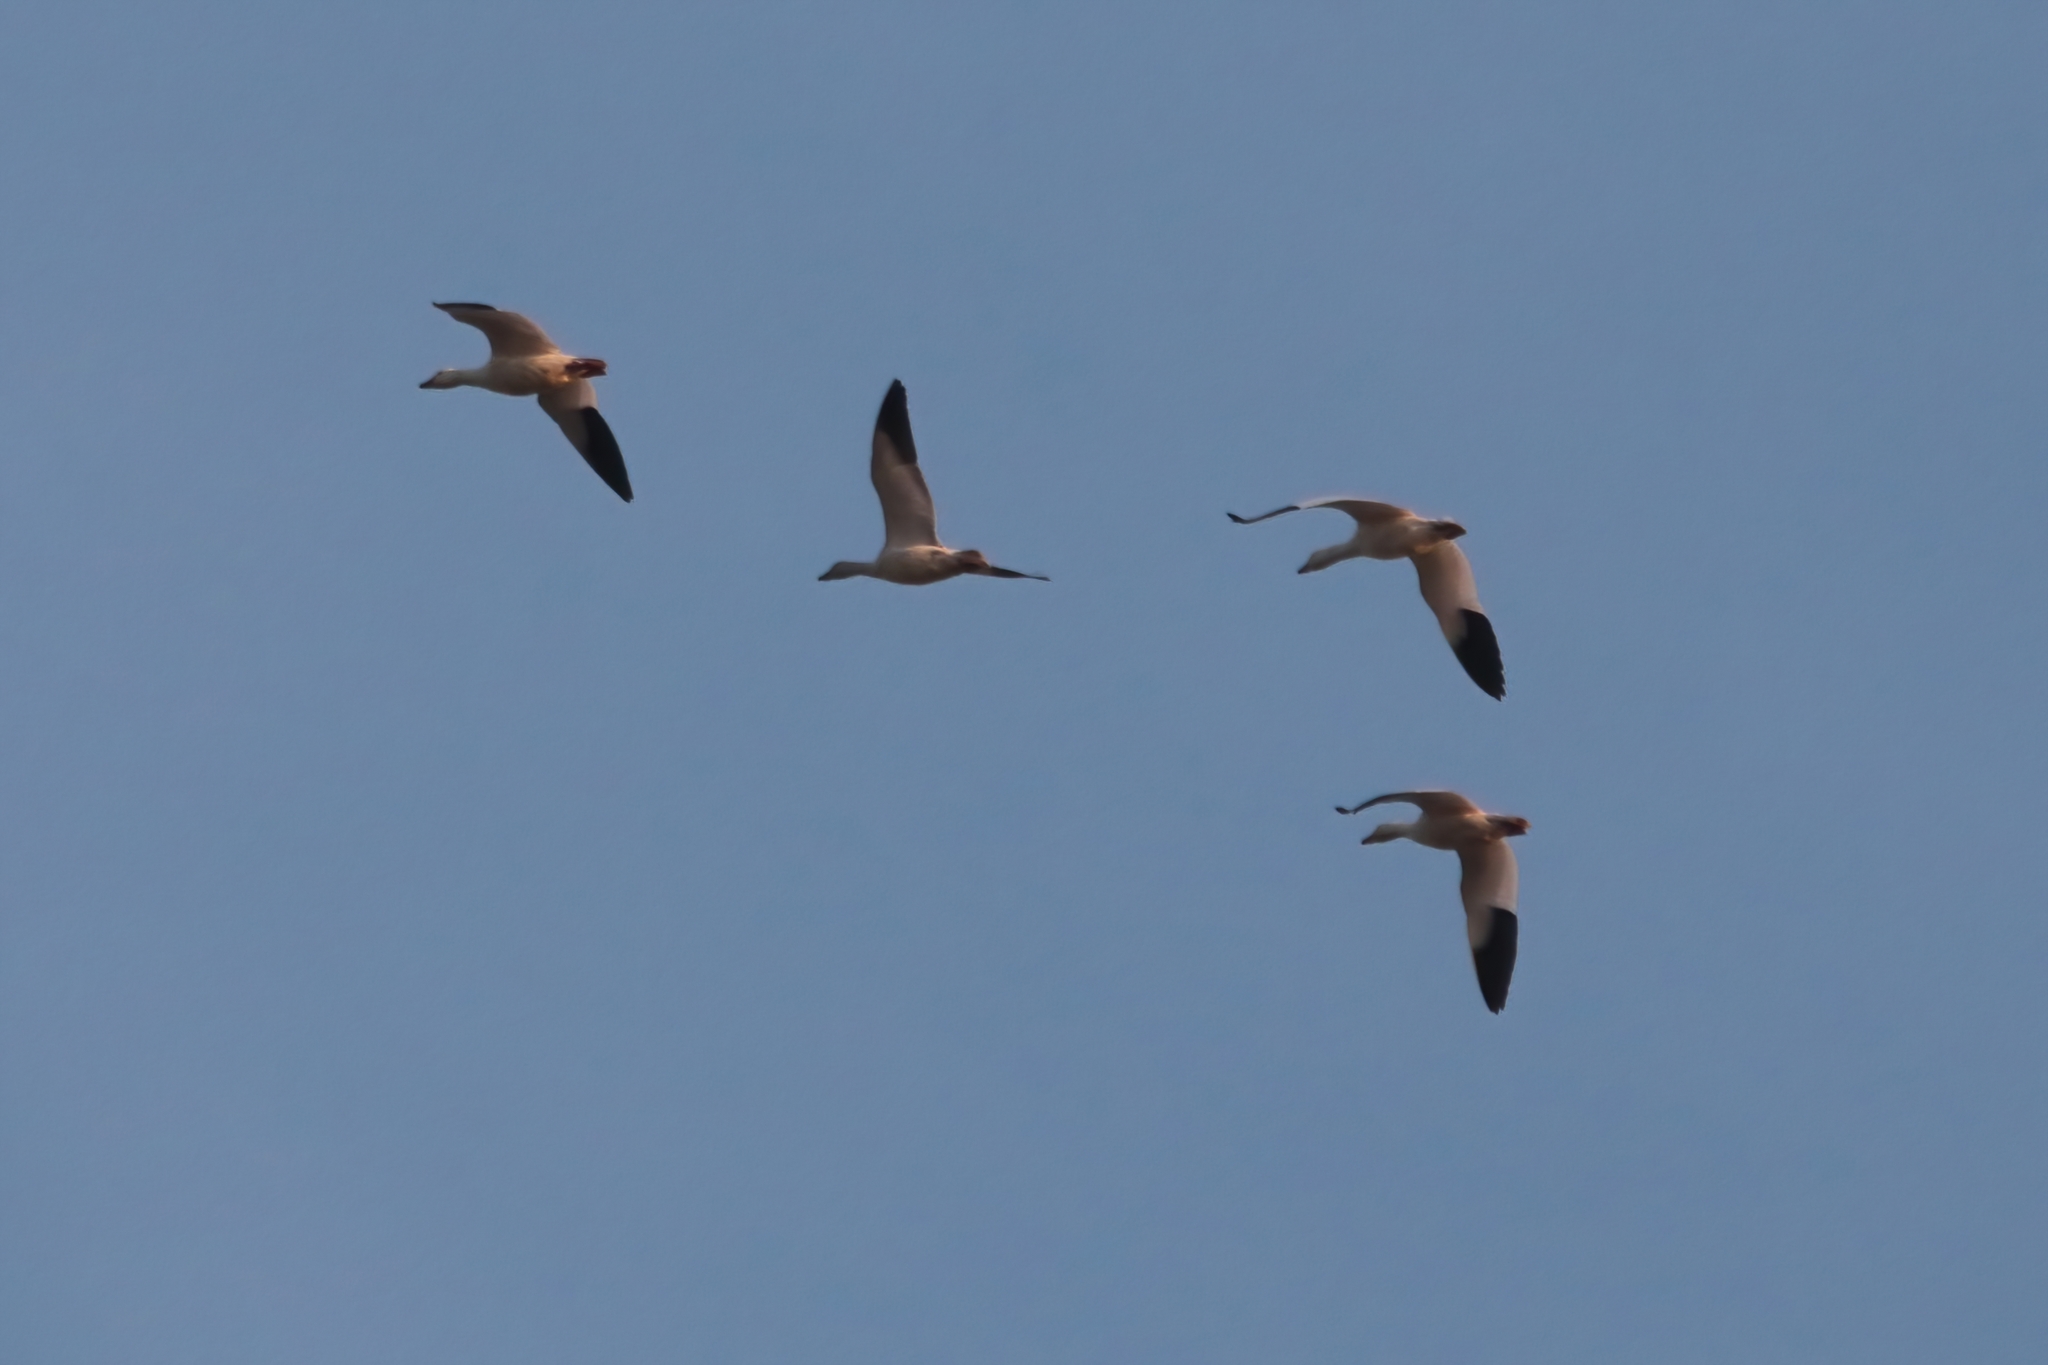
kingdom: Animalia
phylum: Chordata
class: Aves
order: Anseriformes
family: Anatidae
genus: Anser
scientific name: Anser caerulescens
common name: Snow goose
